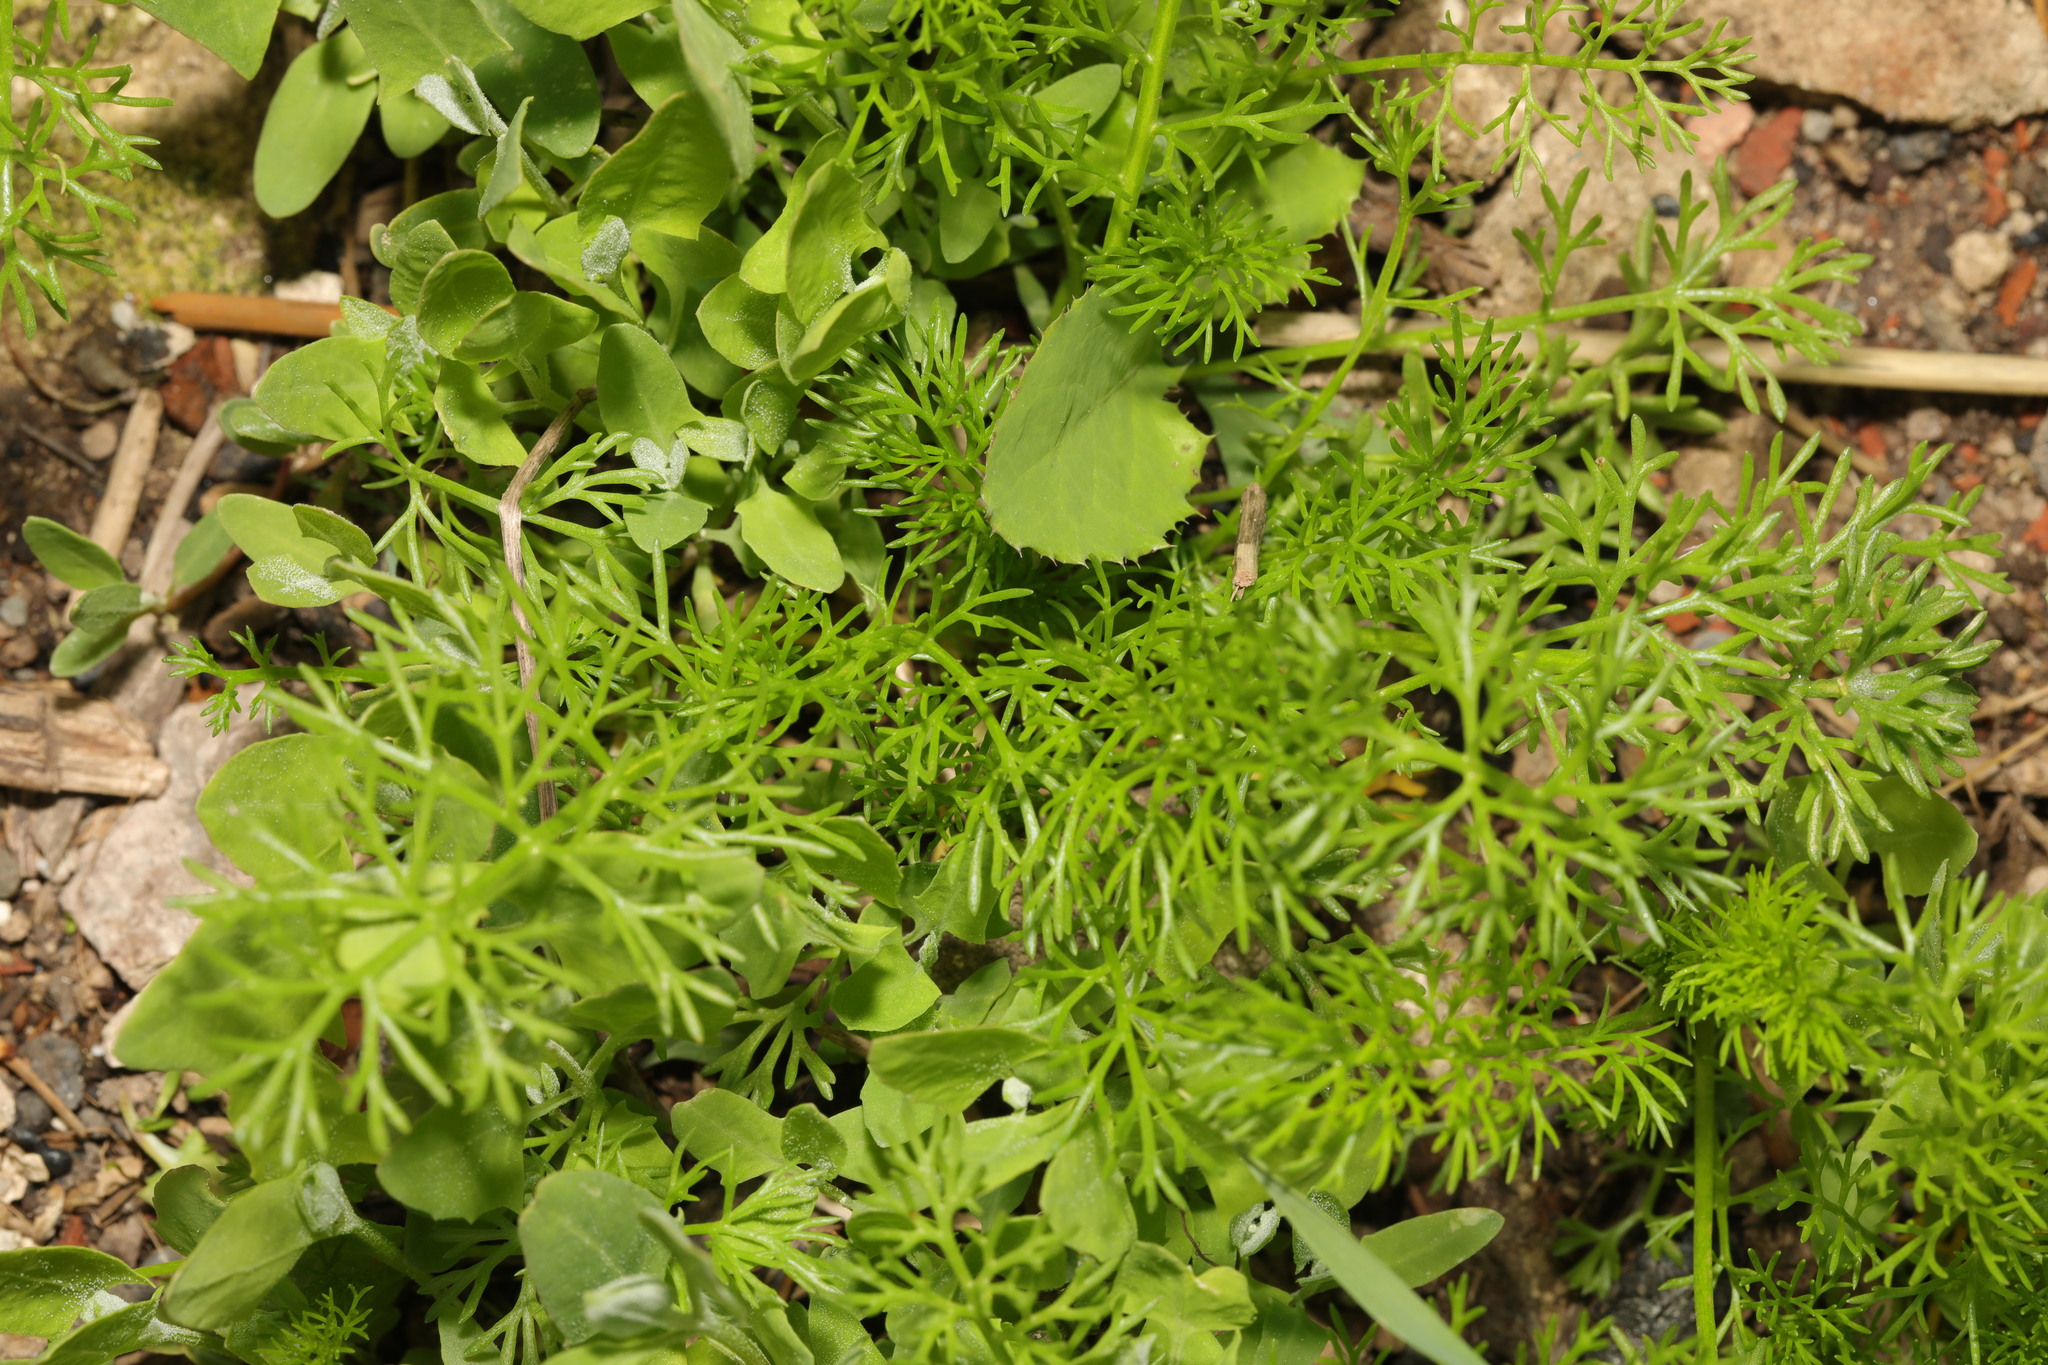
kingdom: Plantae
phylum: Tracheophyta
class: Magnoliopsida
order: Asterales
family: Asteraceae
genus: Tripleurospermum
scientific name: Tripleurospermum maritimum
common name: Sea mayweed
